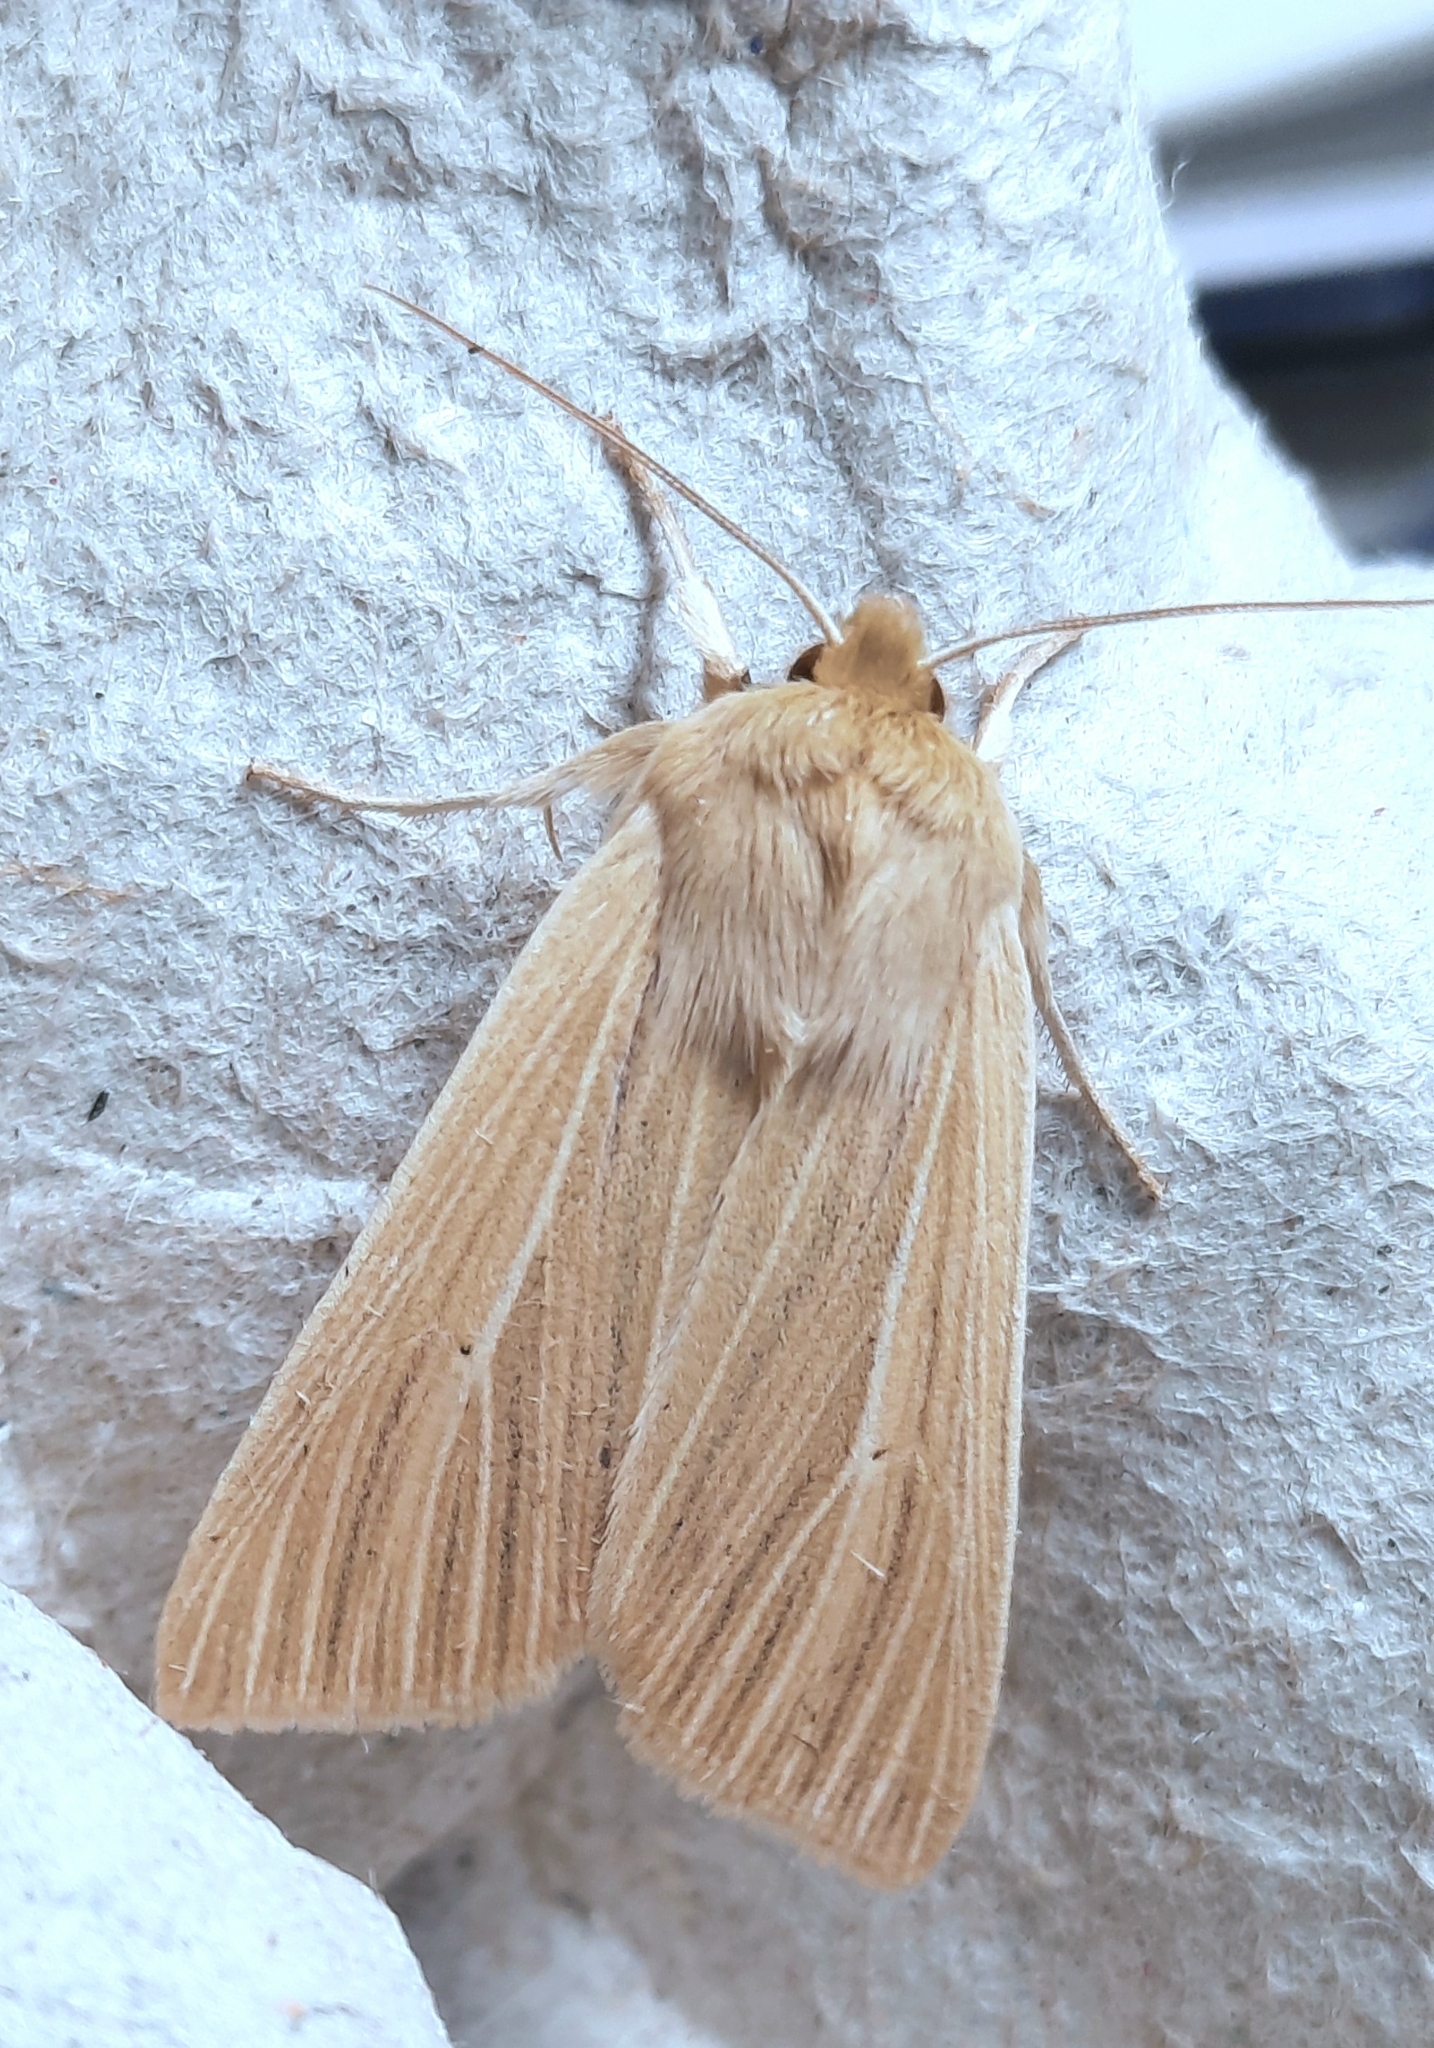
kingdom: Animalia
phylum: Arthropoda
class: Insecta
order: Lepidoptera
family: Noctuidae
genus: Mythimna
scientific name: Mythimna pallens
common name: Common wainscot
